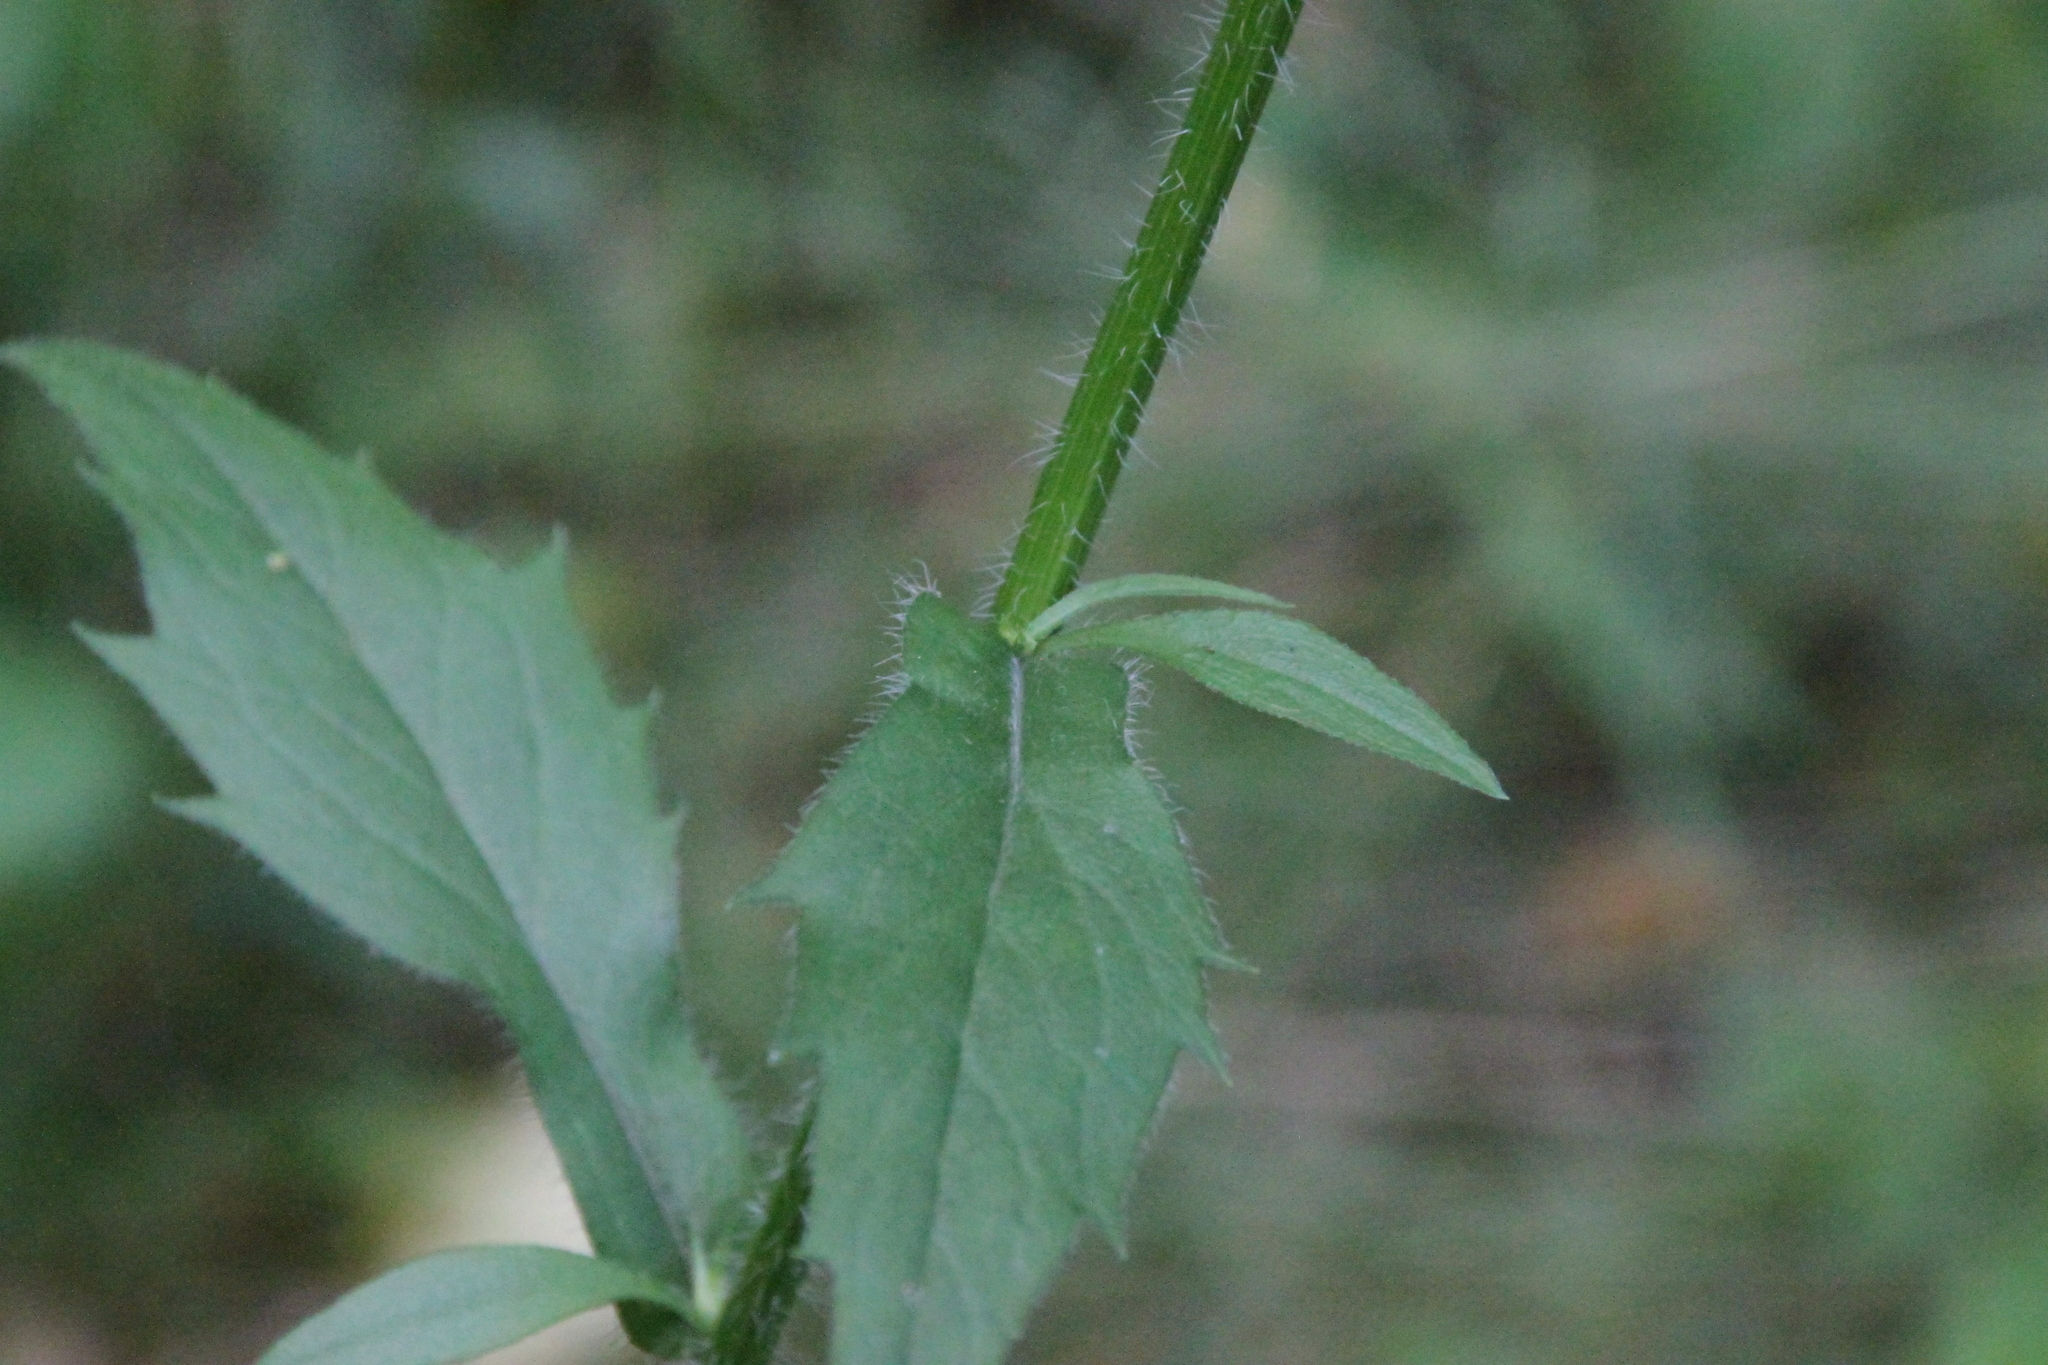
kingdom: Plantae
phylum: Tracheophyta
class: Magnoliopsida
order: Asterales
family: Asteraceae
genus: Erigeron
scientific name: Erigeron annuus
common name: Tall fleabane
